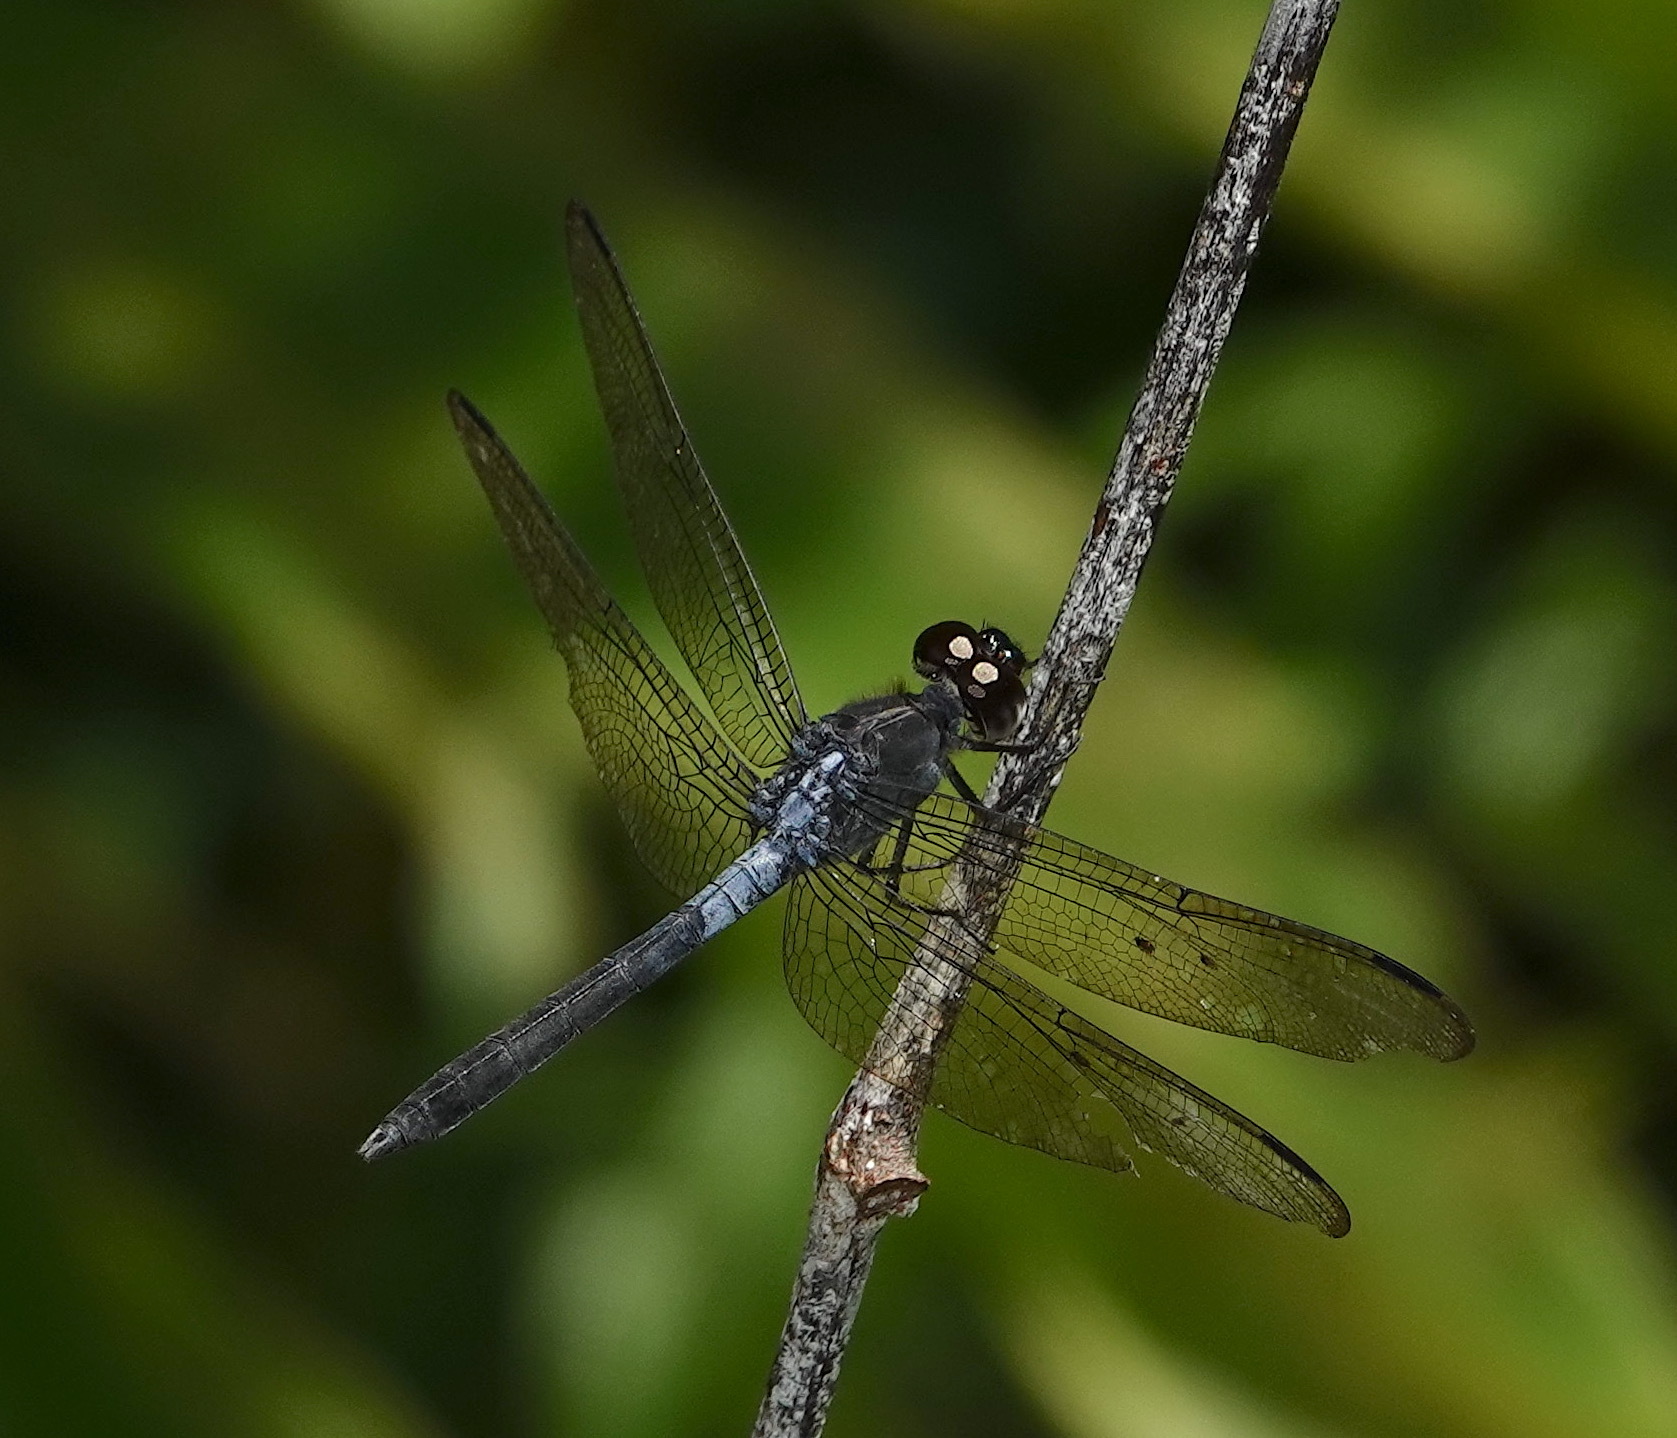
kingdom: Animalia
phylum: Arthropoda
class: Insecta
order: Odonata
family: Libellulidae
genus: Cratilla
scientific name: Cratilla lineata
